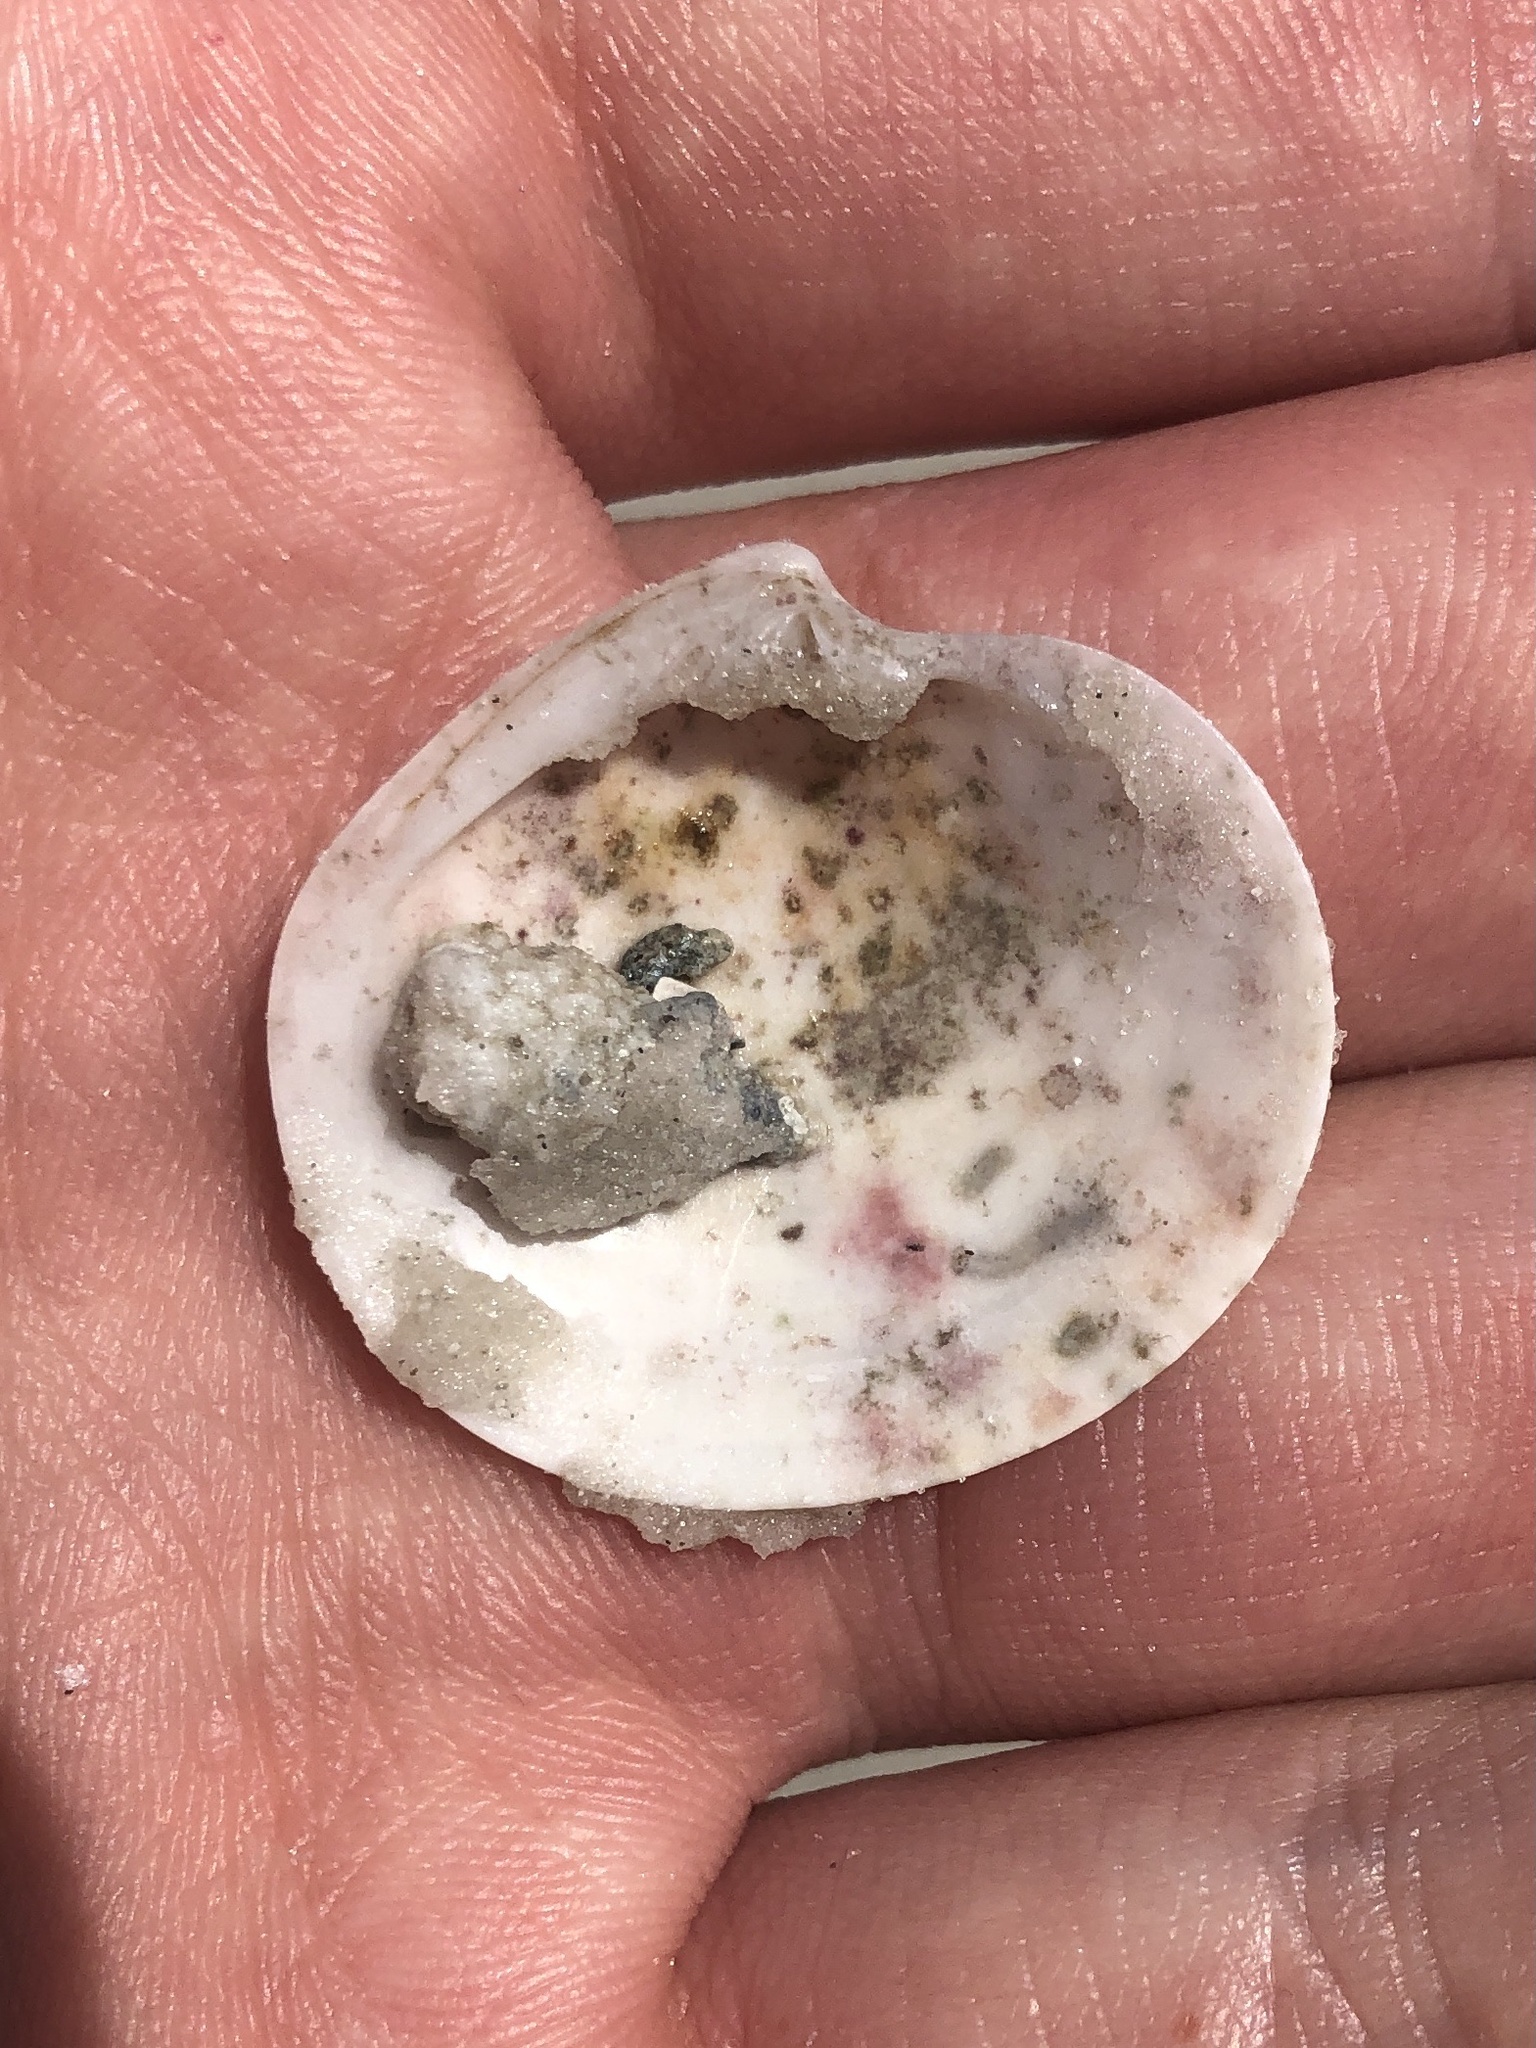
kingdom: Animalia
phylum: Mollusca
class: Bivalvia
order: Venerida
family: Veneridae
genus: Dosinia
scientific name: Dosinia concentrica
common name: Elegant dosinia
